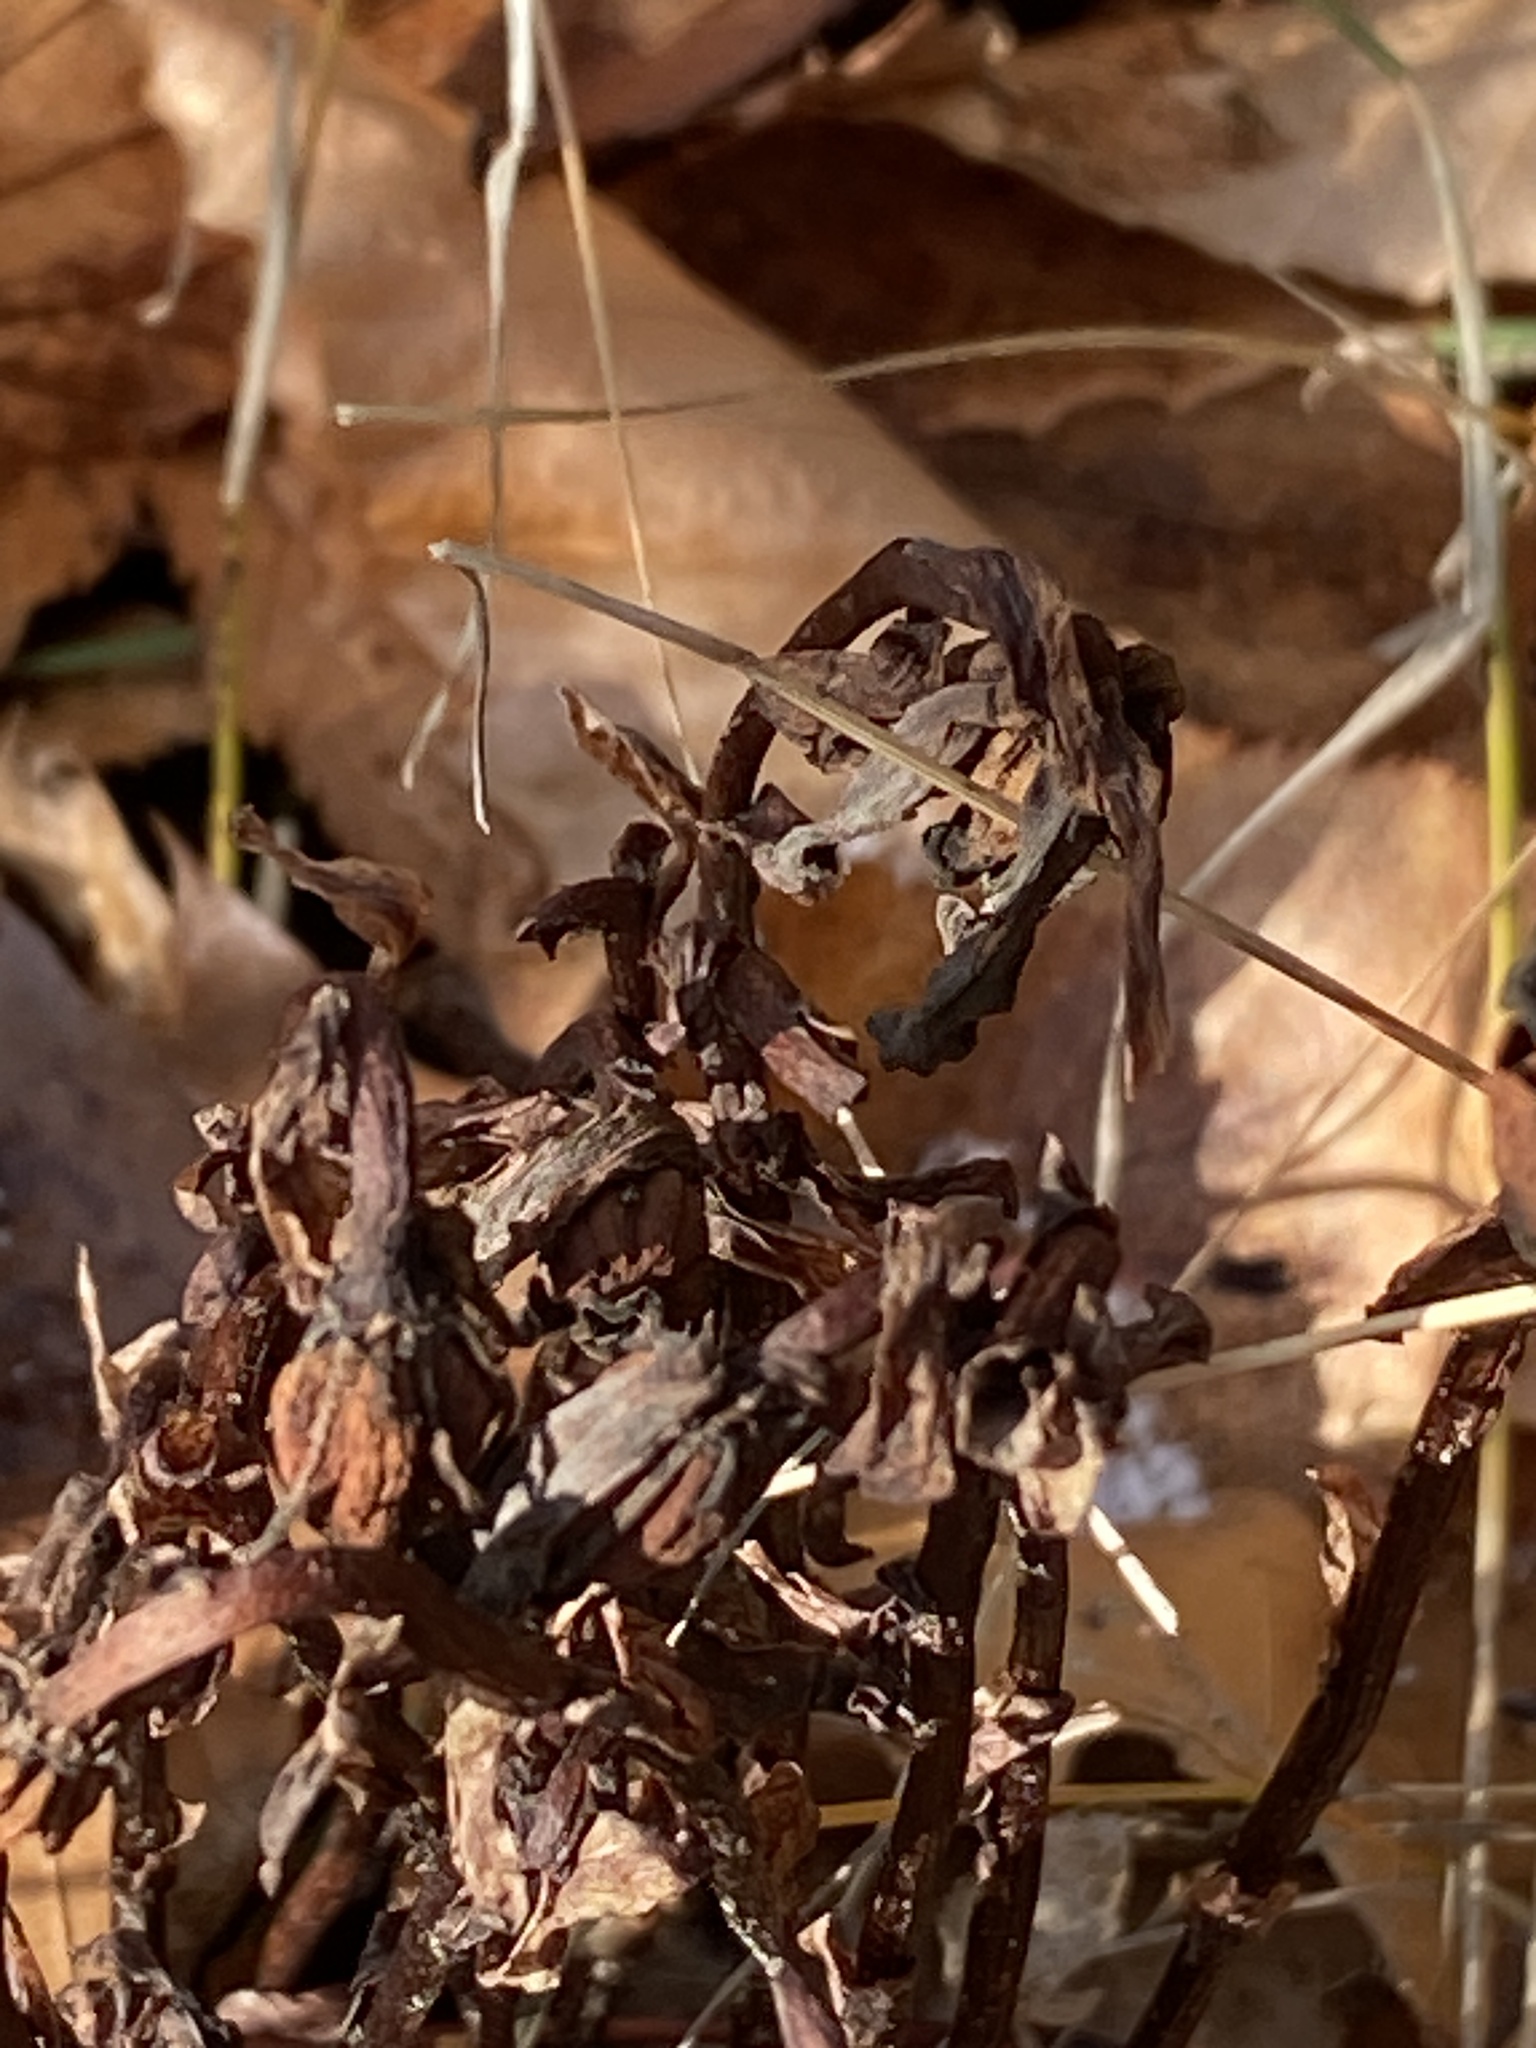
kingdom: Plantae
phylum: Tracheophyta
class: Magnoliopsida
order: Ericales
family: Ericaceae
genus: Monotropa
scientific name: Monotropa uniflora
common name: Convulsion root
